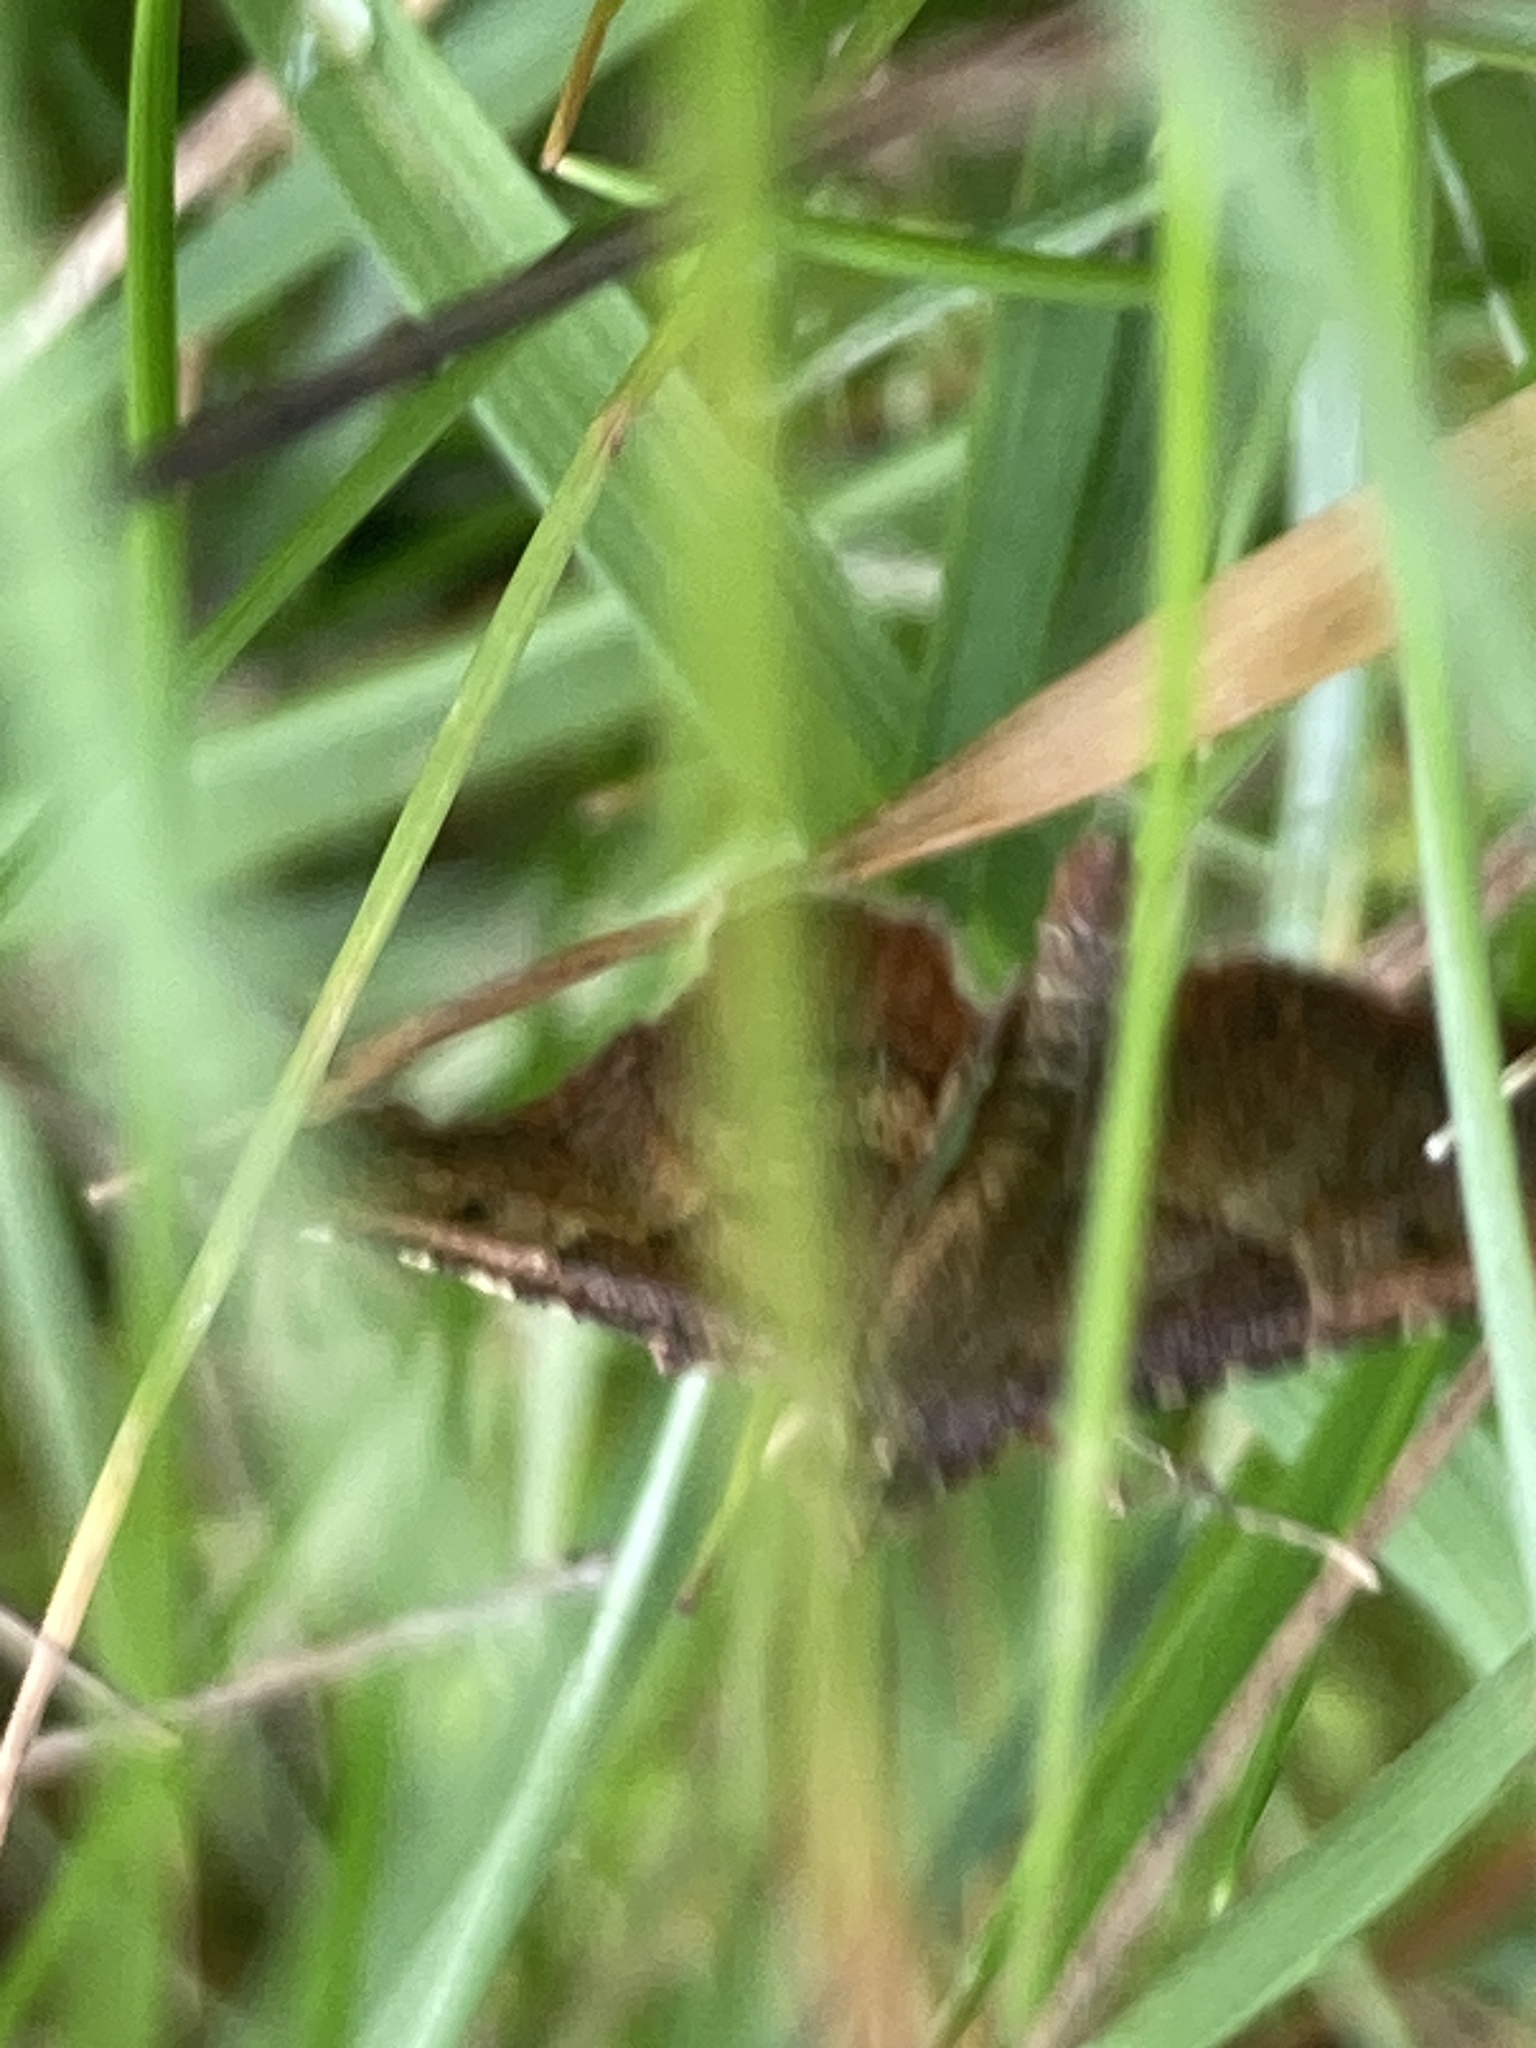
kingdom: Animalia
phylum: Arthropoda
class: Insecta
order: Lepidoptera
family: Pyralidae
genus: Endotricha
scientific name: Endotricha flammealis
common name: Rosy tabby
